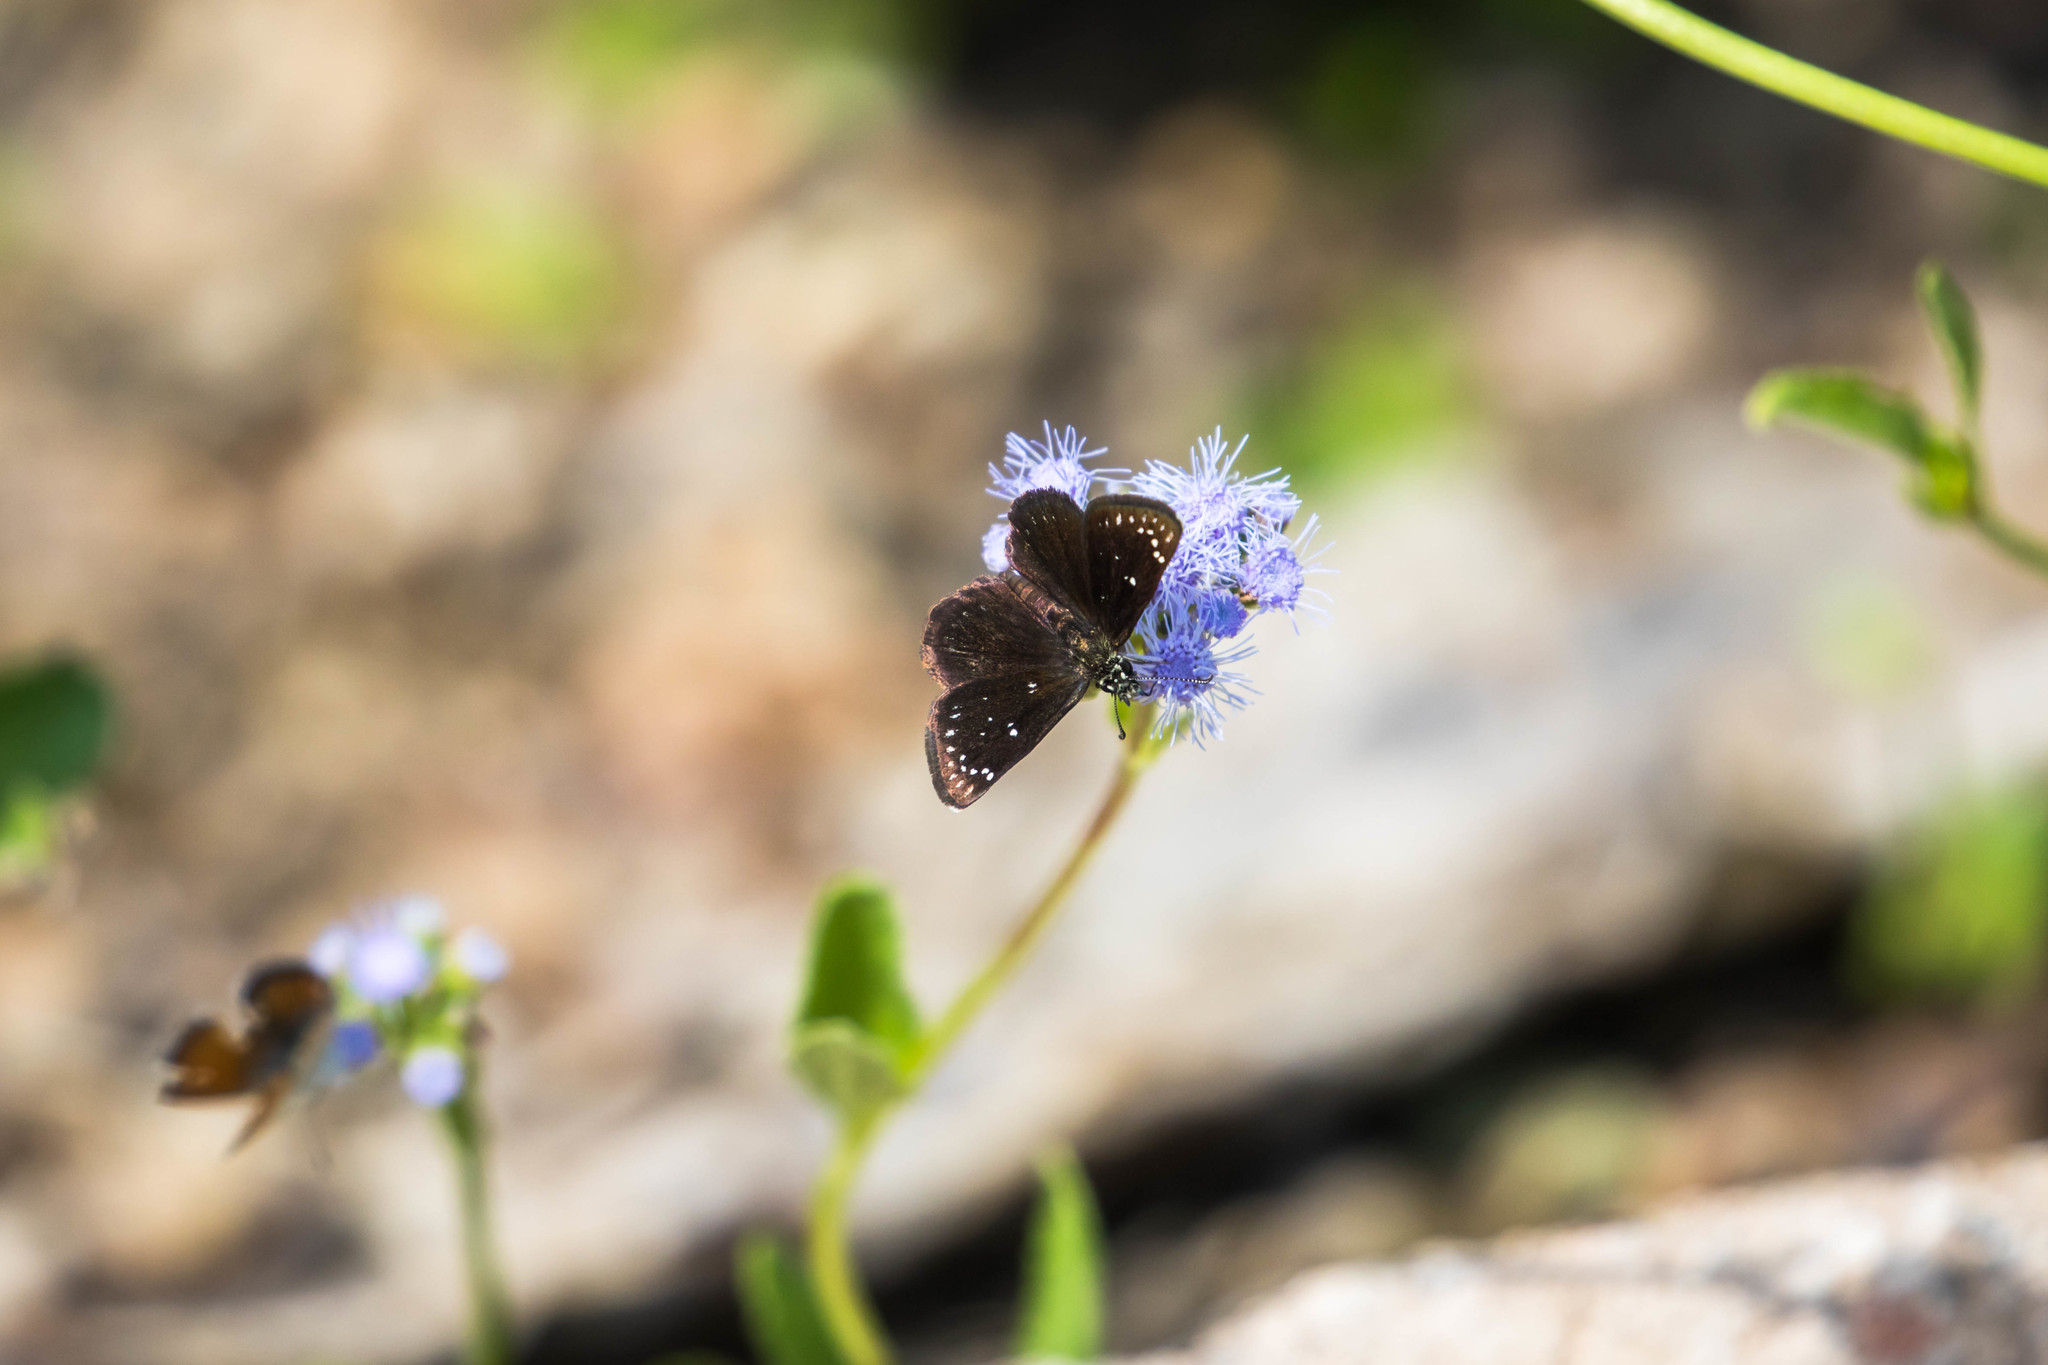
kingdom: Animalia
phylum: Arthropoda
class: Insecta
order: Lepidoptera
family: Hesperiidae
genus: Pholisora
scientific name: Pholisora catullus
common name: Common sootywing
